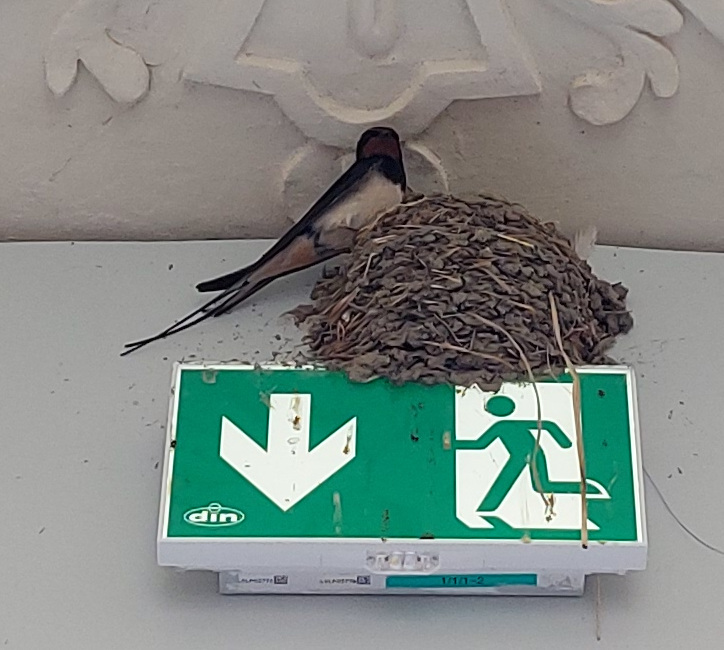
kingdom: Animalia
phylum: Chordata
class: Aves
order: Passeriformes
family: Hirundinidae
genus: Hirundo
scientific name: Hirundo rustica
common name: Barn swallow
